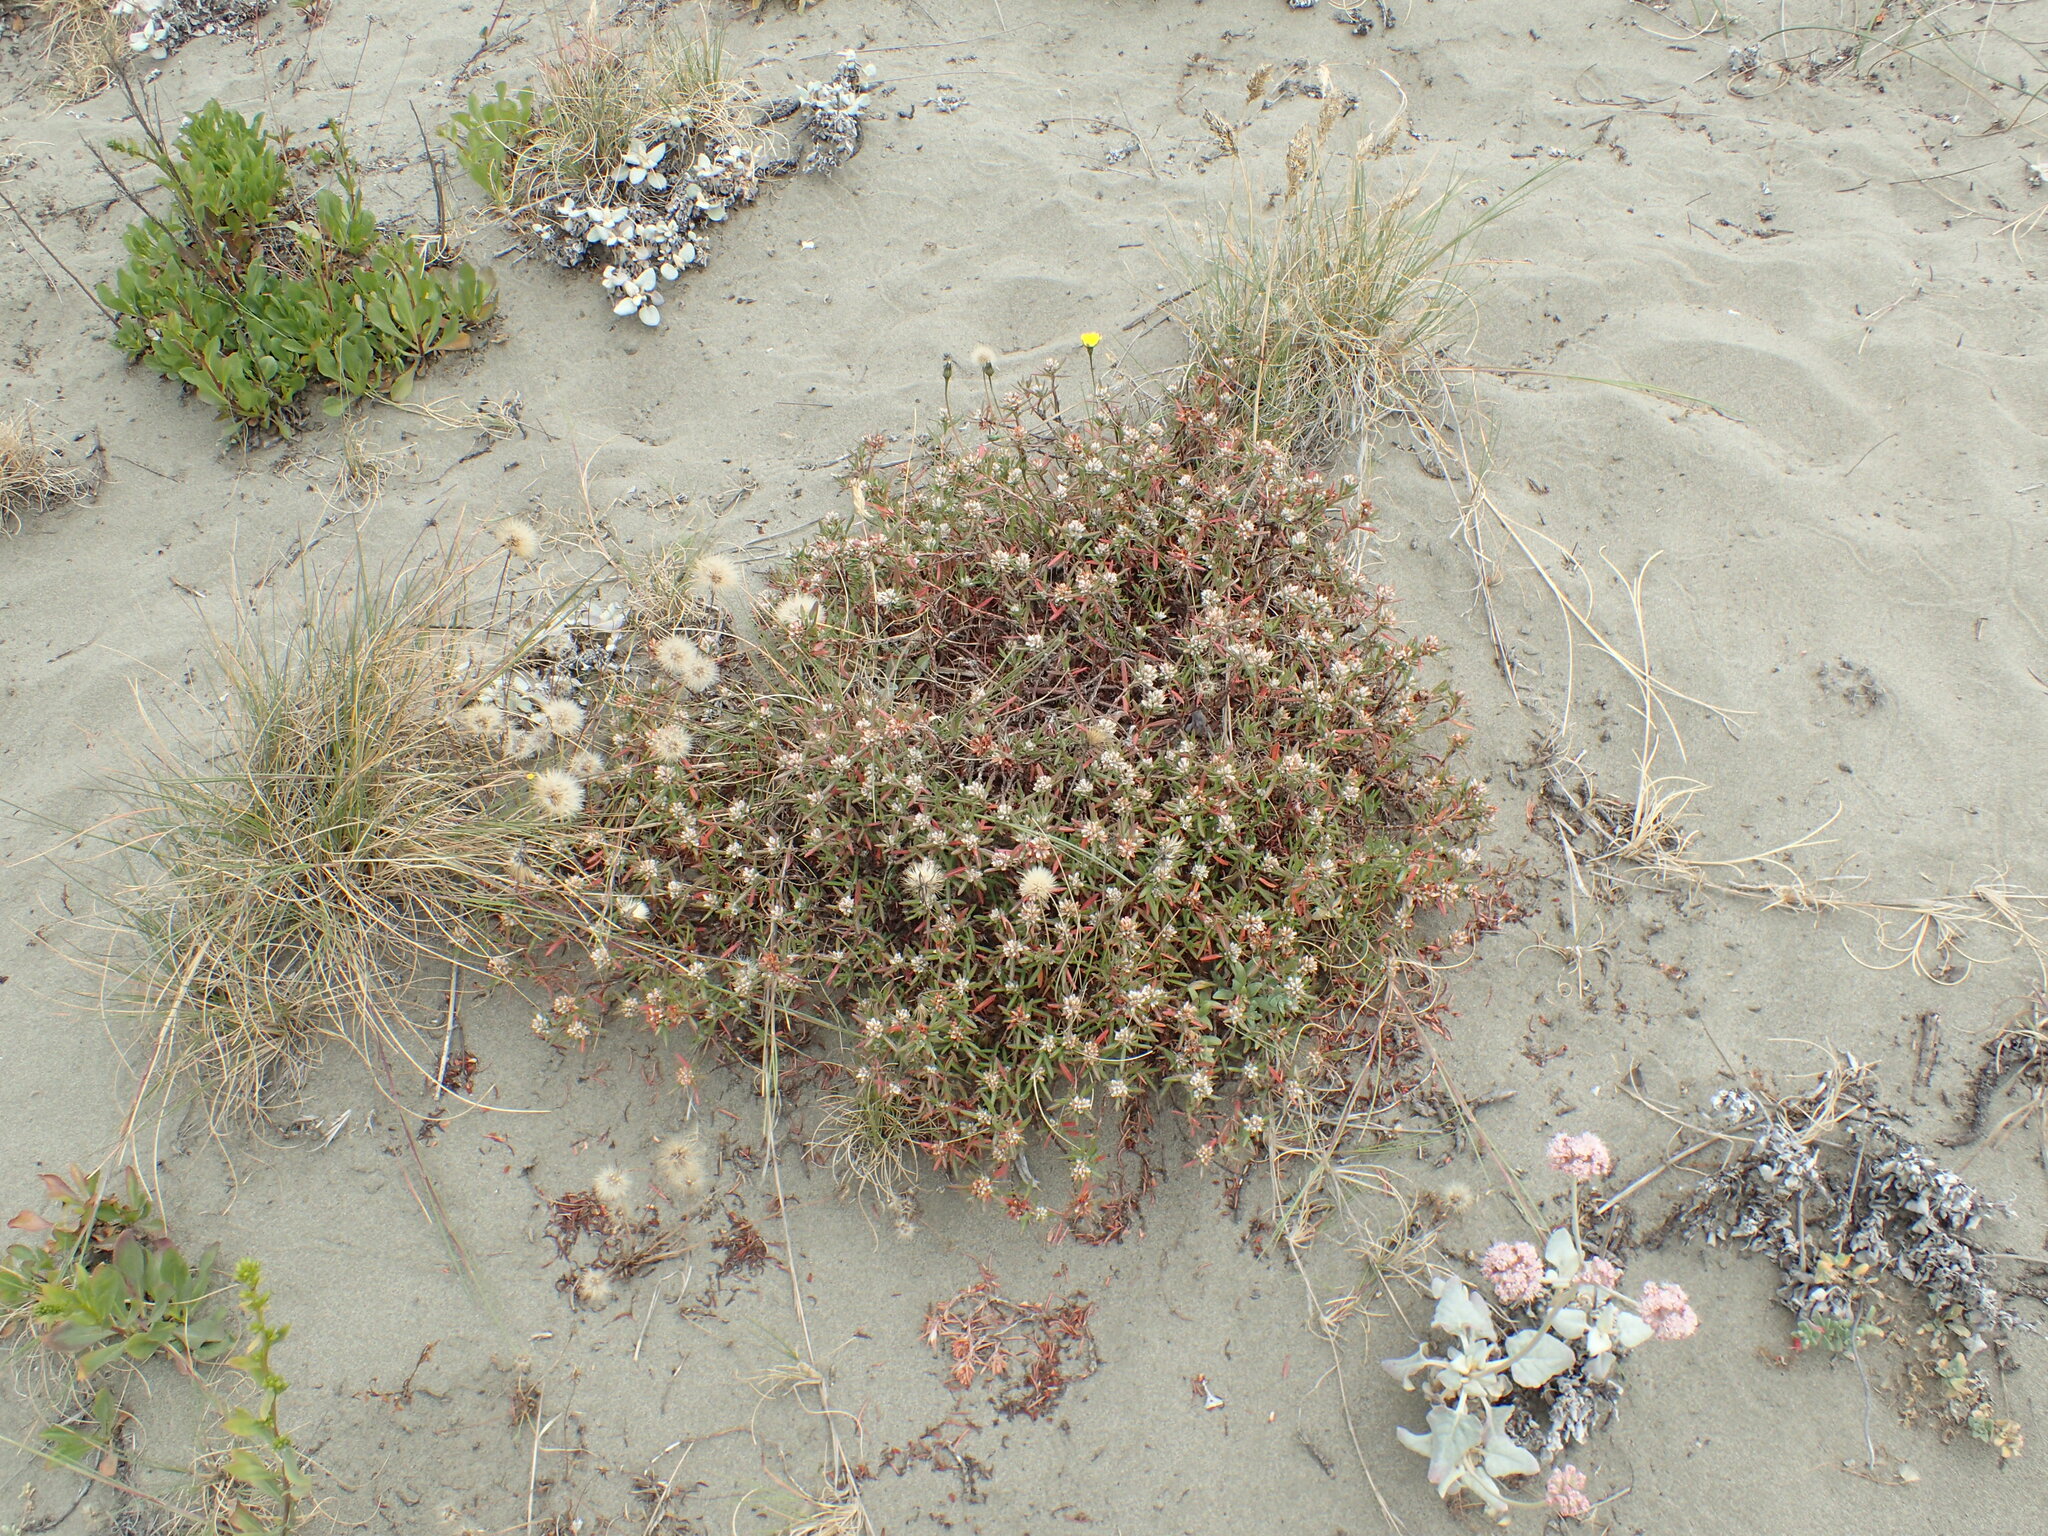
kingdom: Plantae
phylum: Tracheophyta
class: Magnoliopsida
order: Caryophyllales
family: Polygonaceae
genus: Polygonum
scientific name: Polygonum paronychia
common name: Dune knotweed
